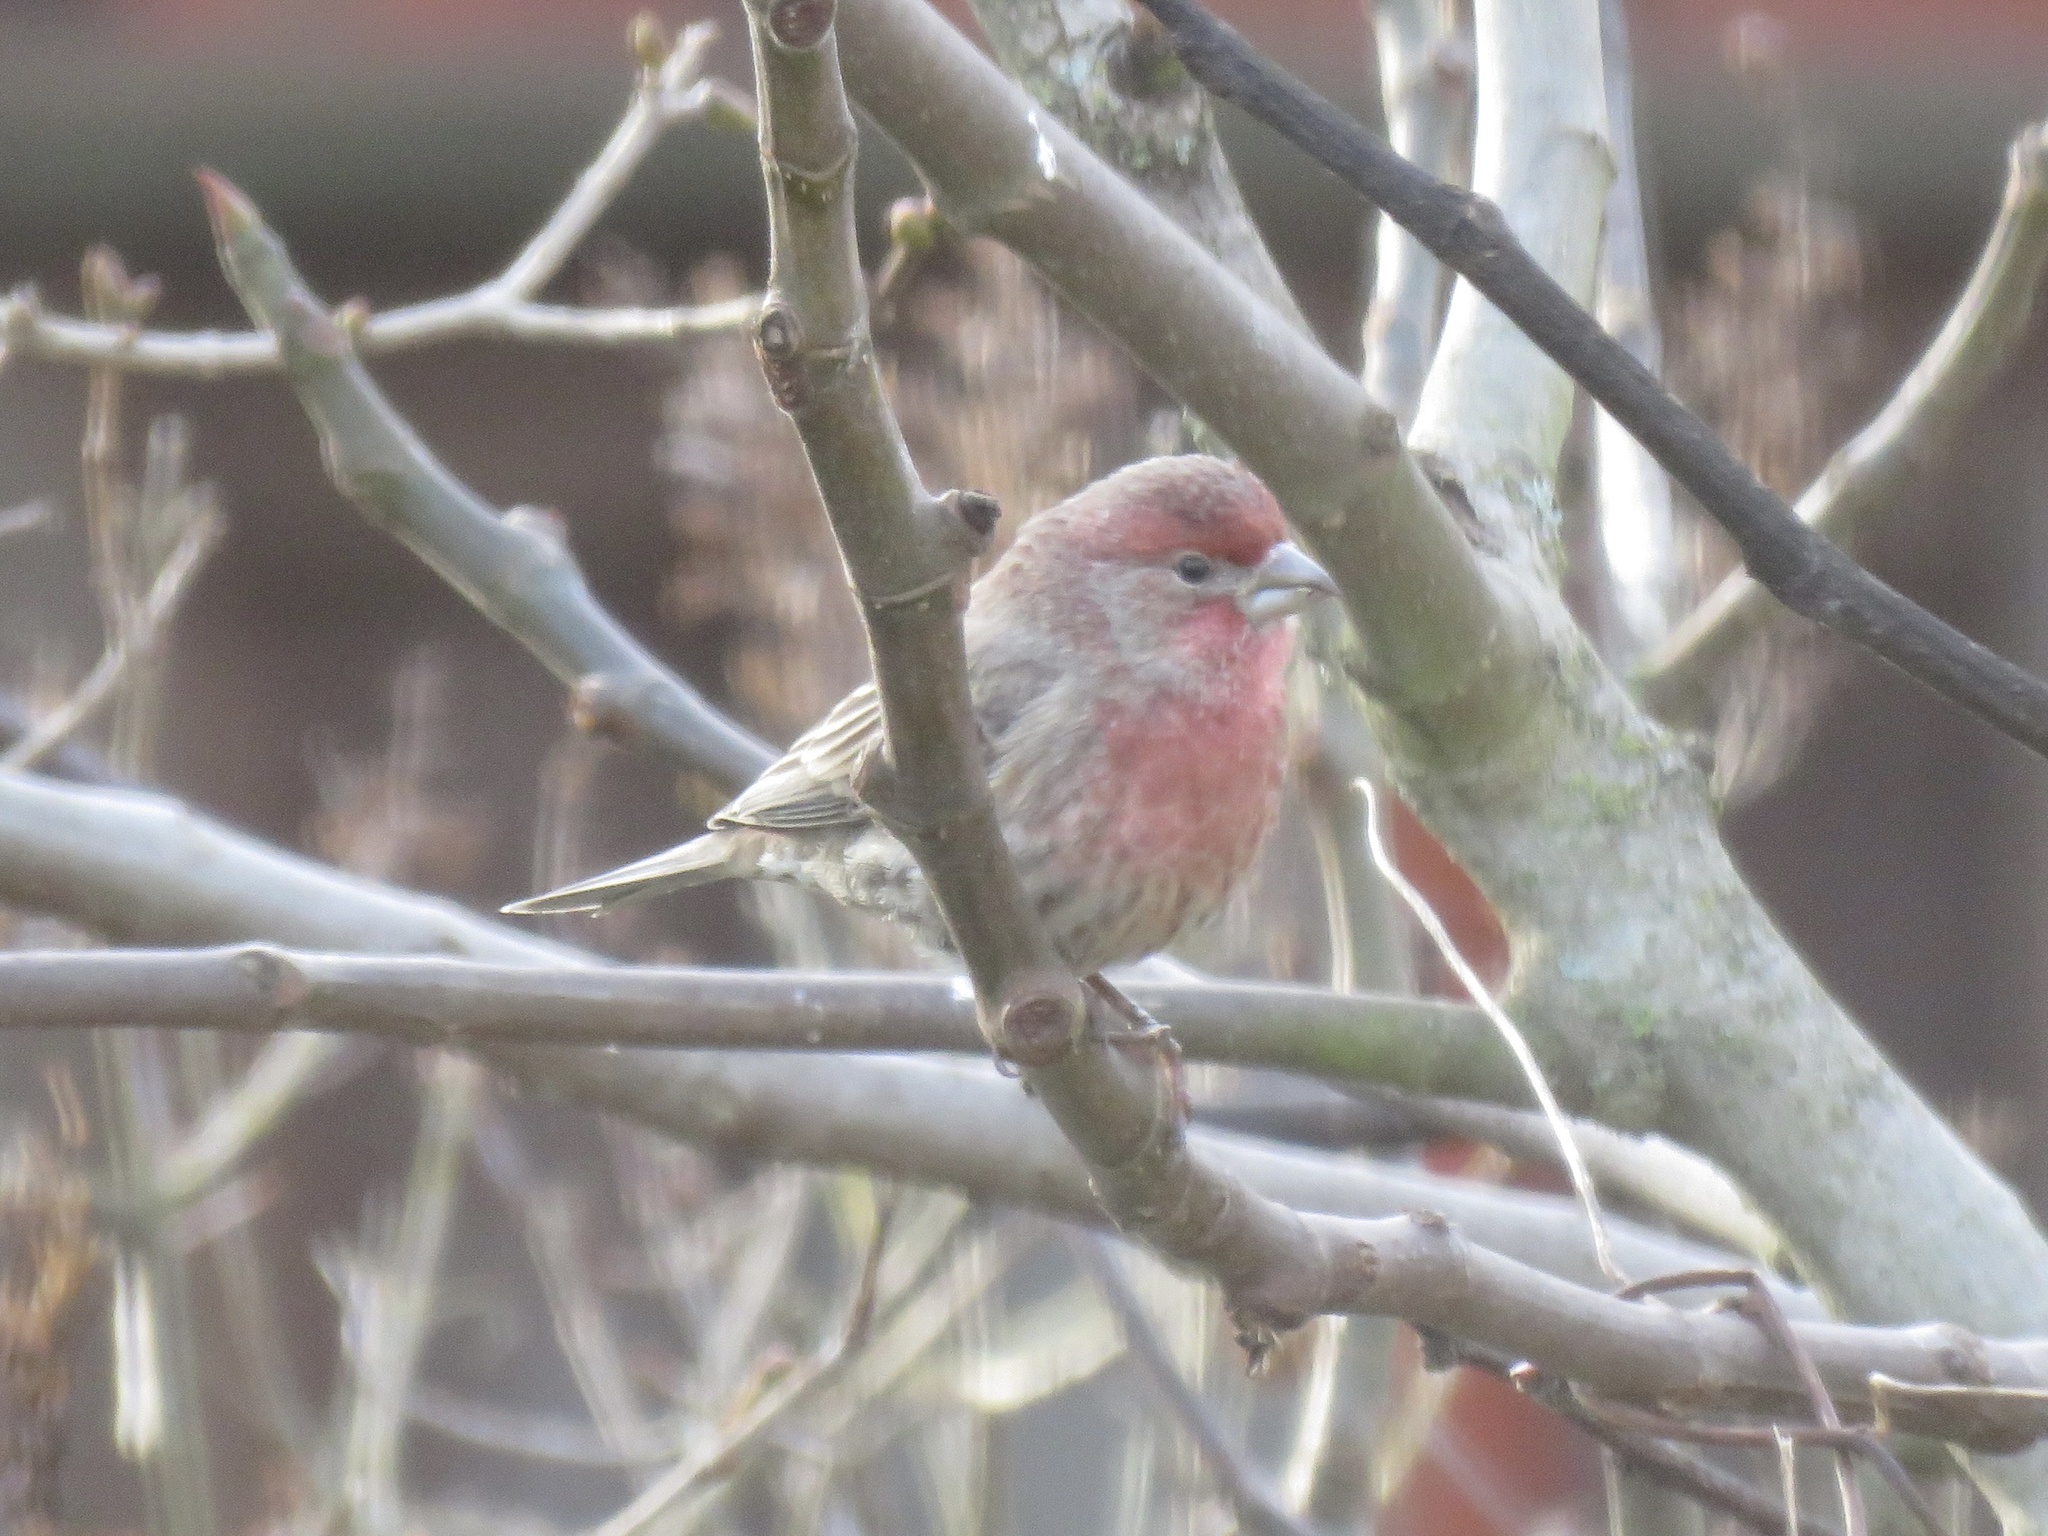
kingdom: Animalia
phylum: Chordata
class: Aves
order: Passeriformes
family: Fringillidae
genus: Haemorhous
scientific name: Haemorhous mexicanus
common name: House finch
